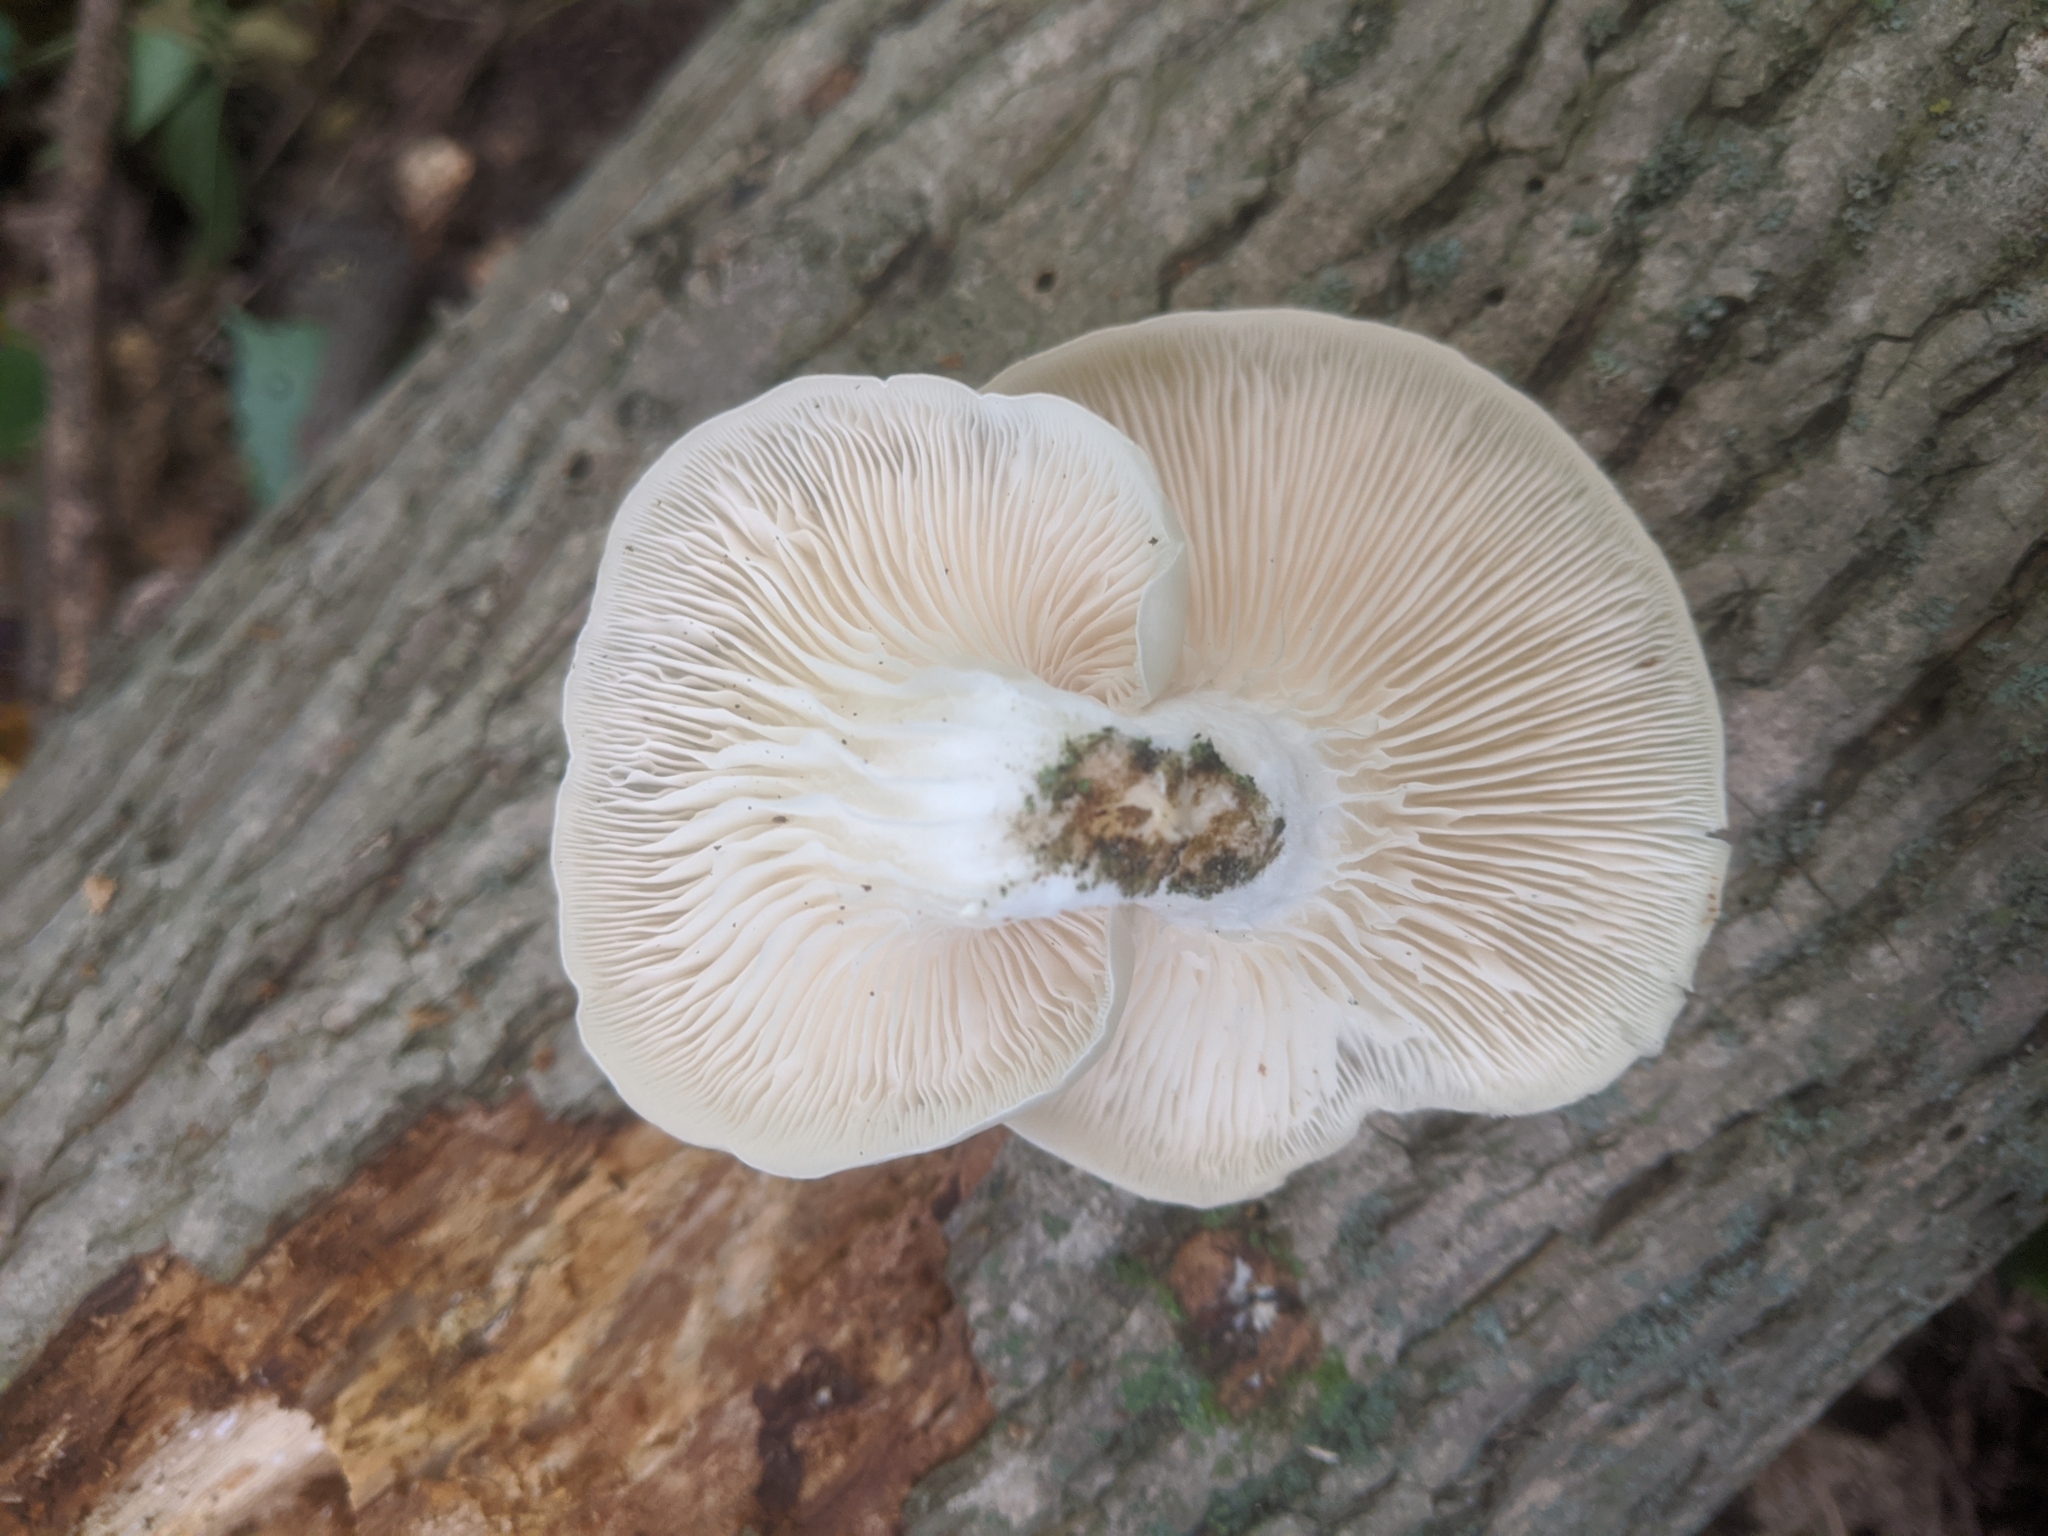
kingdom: Fungi
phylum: Basidiomycota
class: Agaricomycetes
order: Agaricales
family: Pleurotaceae
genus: Pleurotus
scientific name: Pleurotus pulmonarius
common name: Pale oyster
